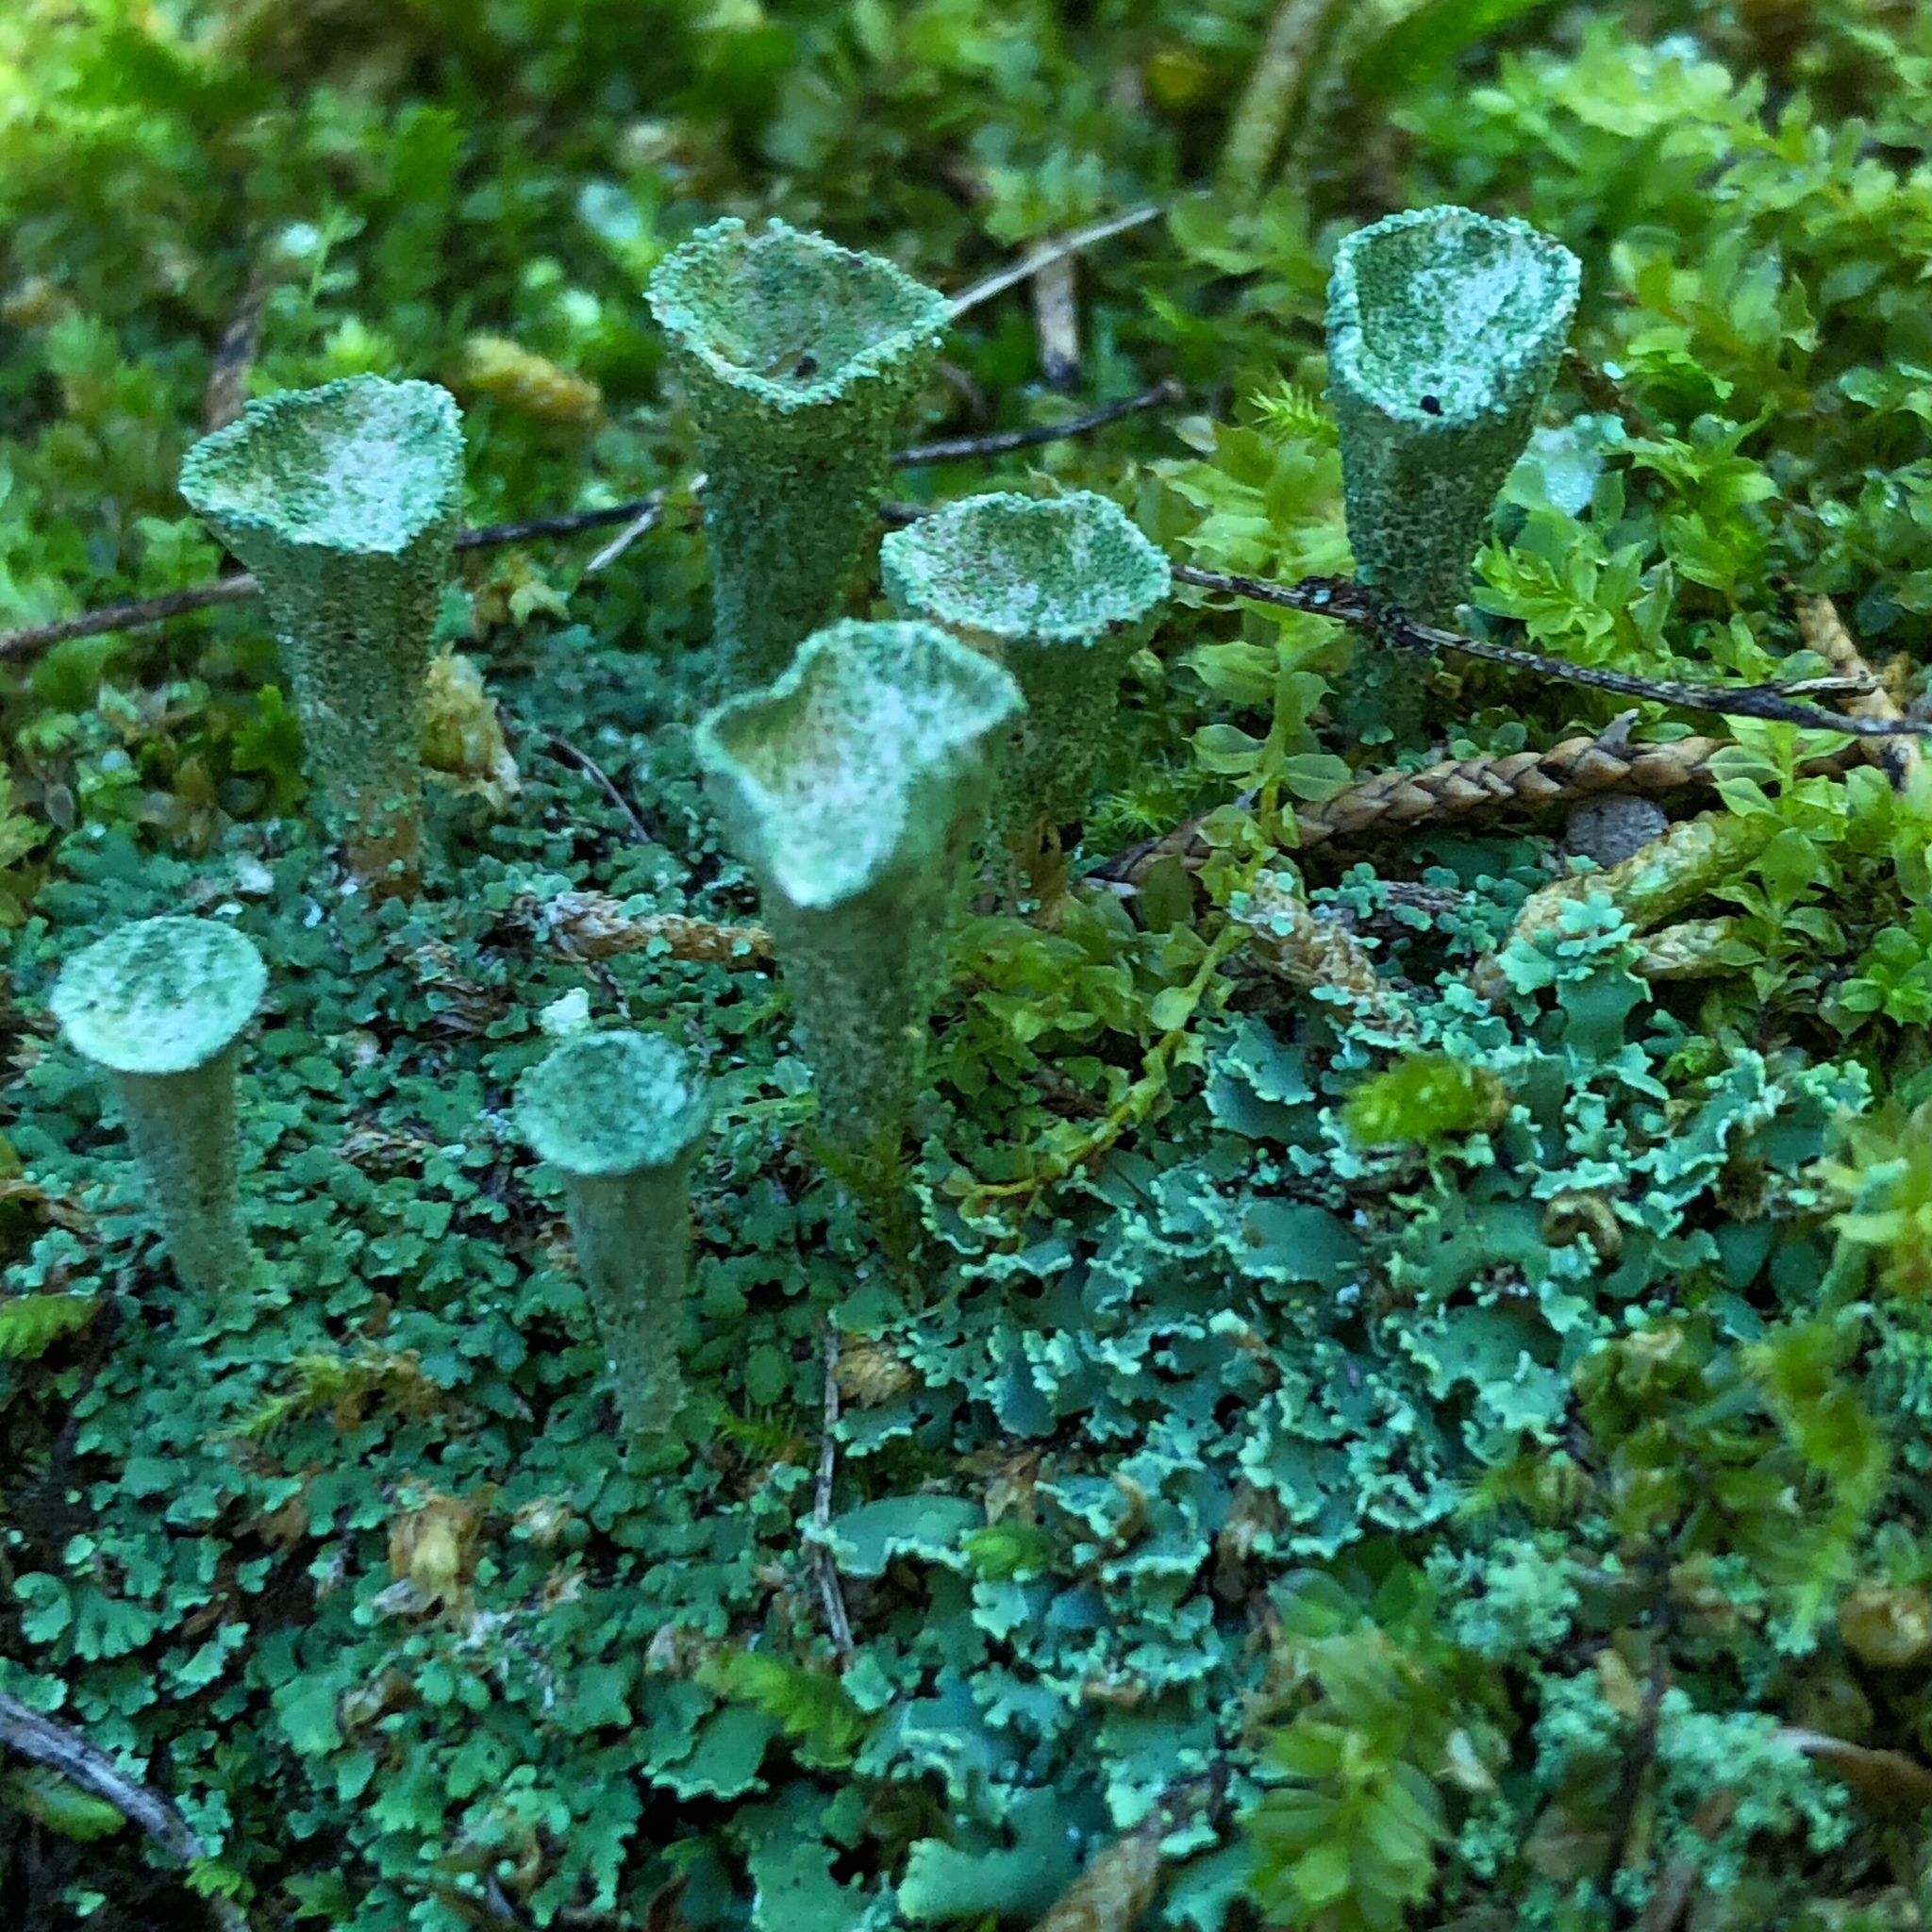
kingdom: Fungi
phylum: Ascomycota
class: Lecanoromycetes
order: Lecanorales
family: Cladoniaceae
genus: Cladonia
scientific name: Cladonia pyxidata
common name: Pebbled pixie cup
